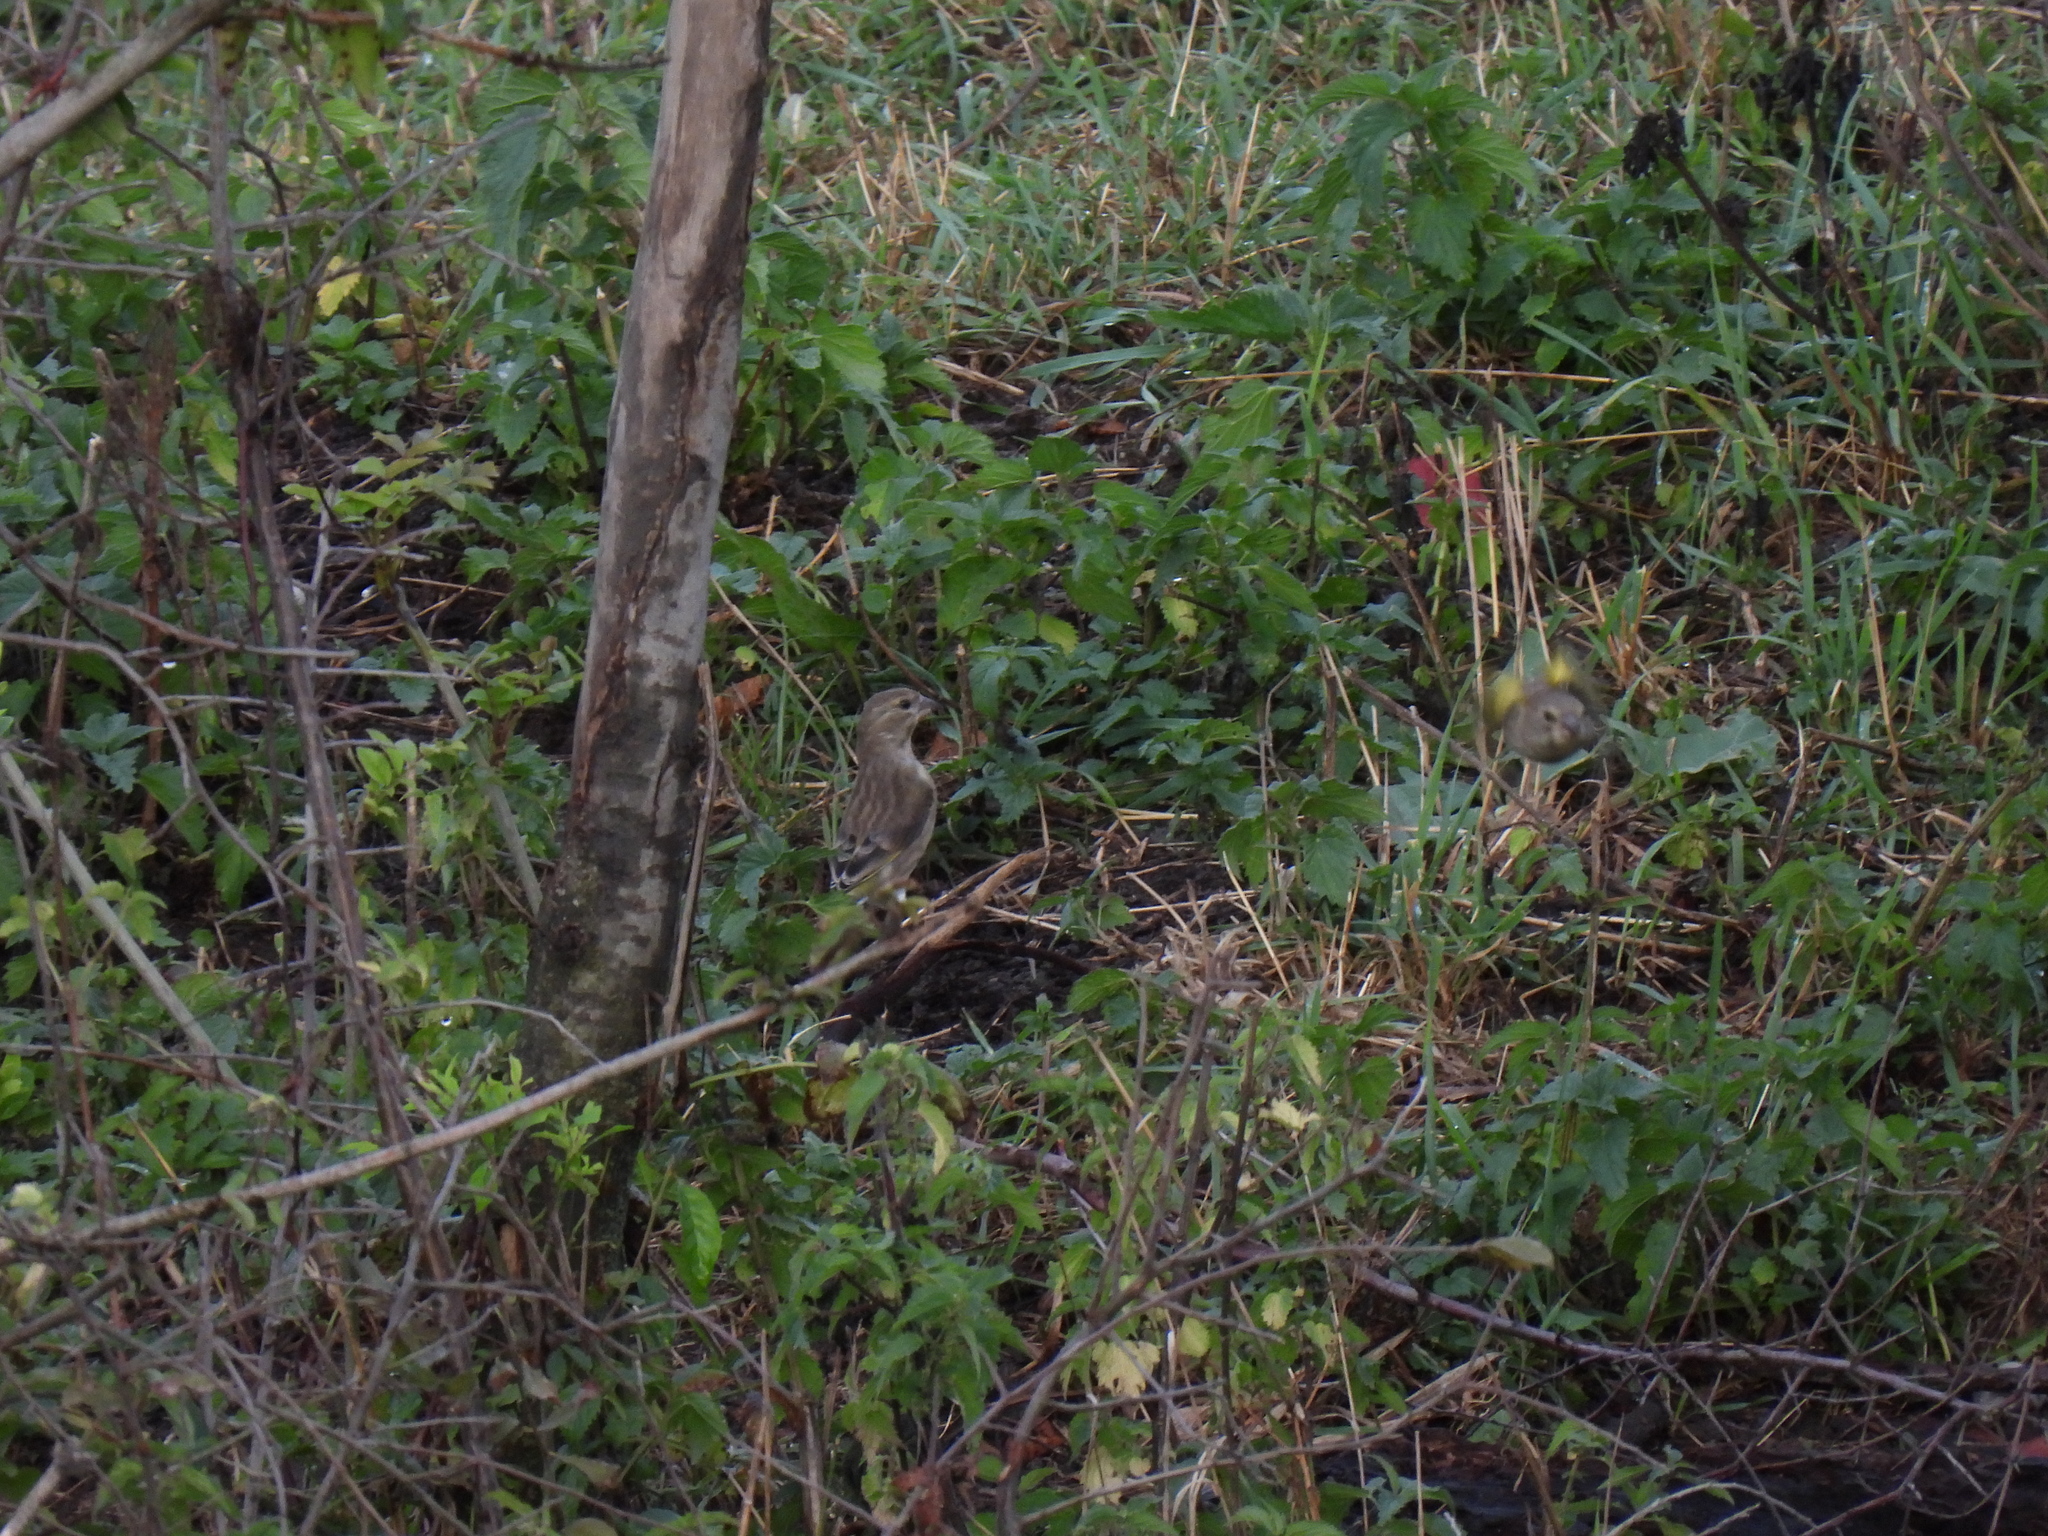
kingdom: Plantae
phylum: Tracheophyta
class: Liliopsida
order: Poales
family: Poaceae
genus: Chloris
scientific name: Chloris chloris
